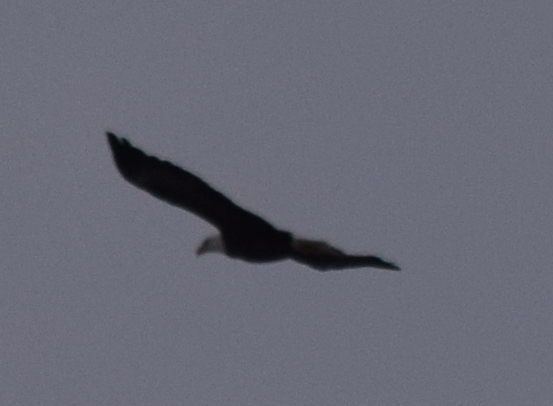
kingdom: Animalia
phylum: Chordata
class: Aves
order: Accipitriformes
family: Accipitridae
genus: Haliaeetus
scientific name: Haliaeetus leucocephalus
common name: Bald eagle
